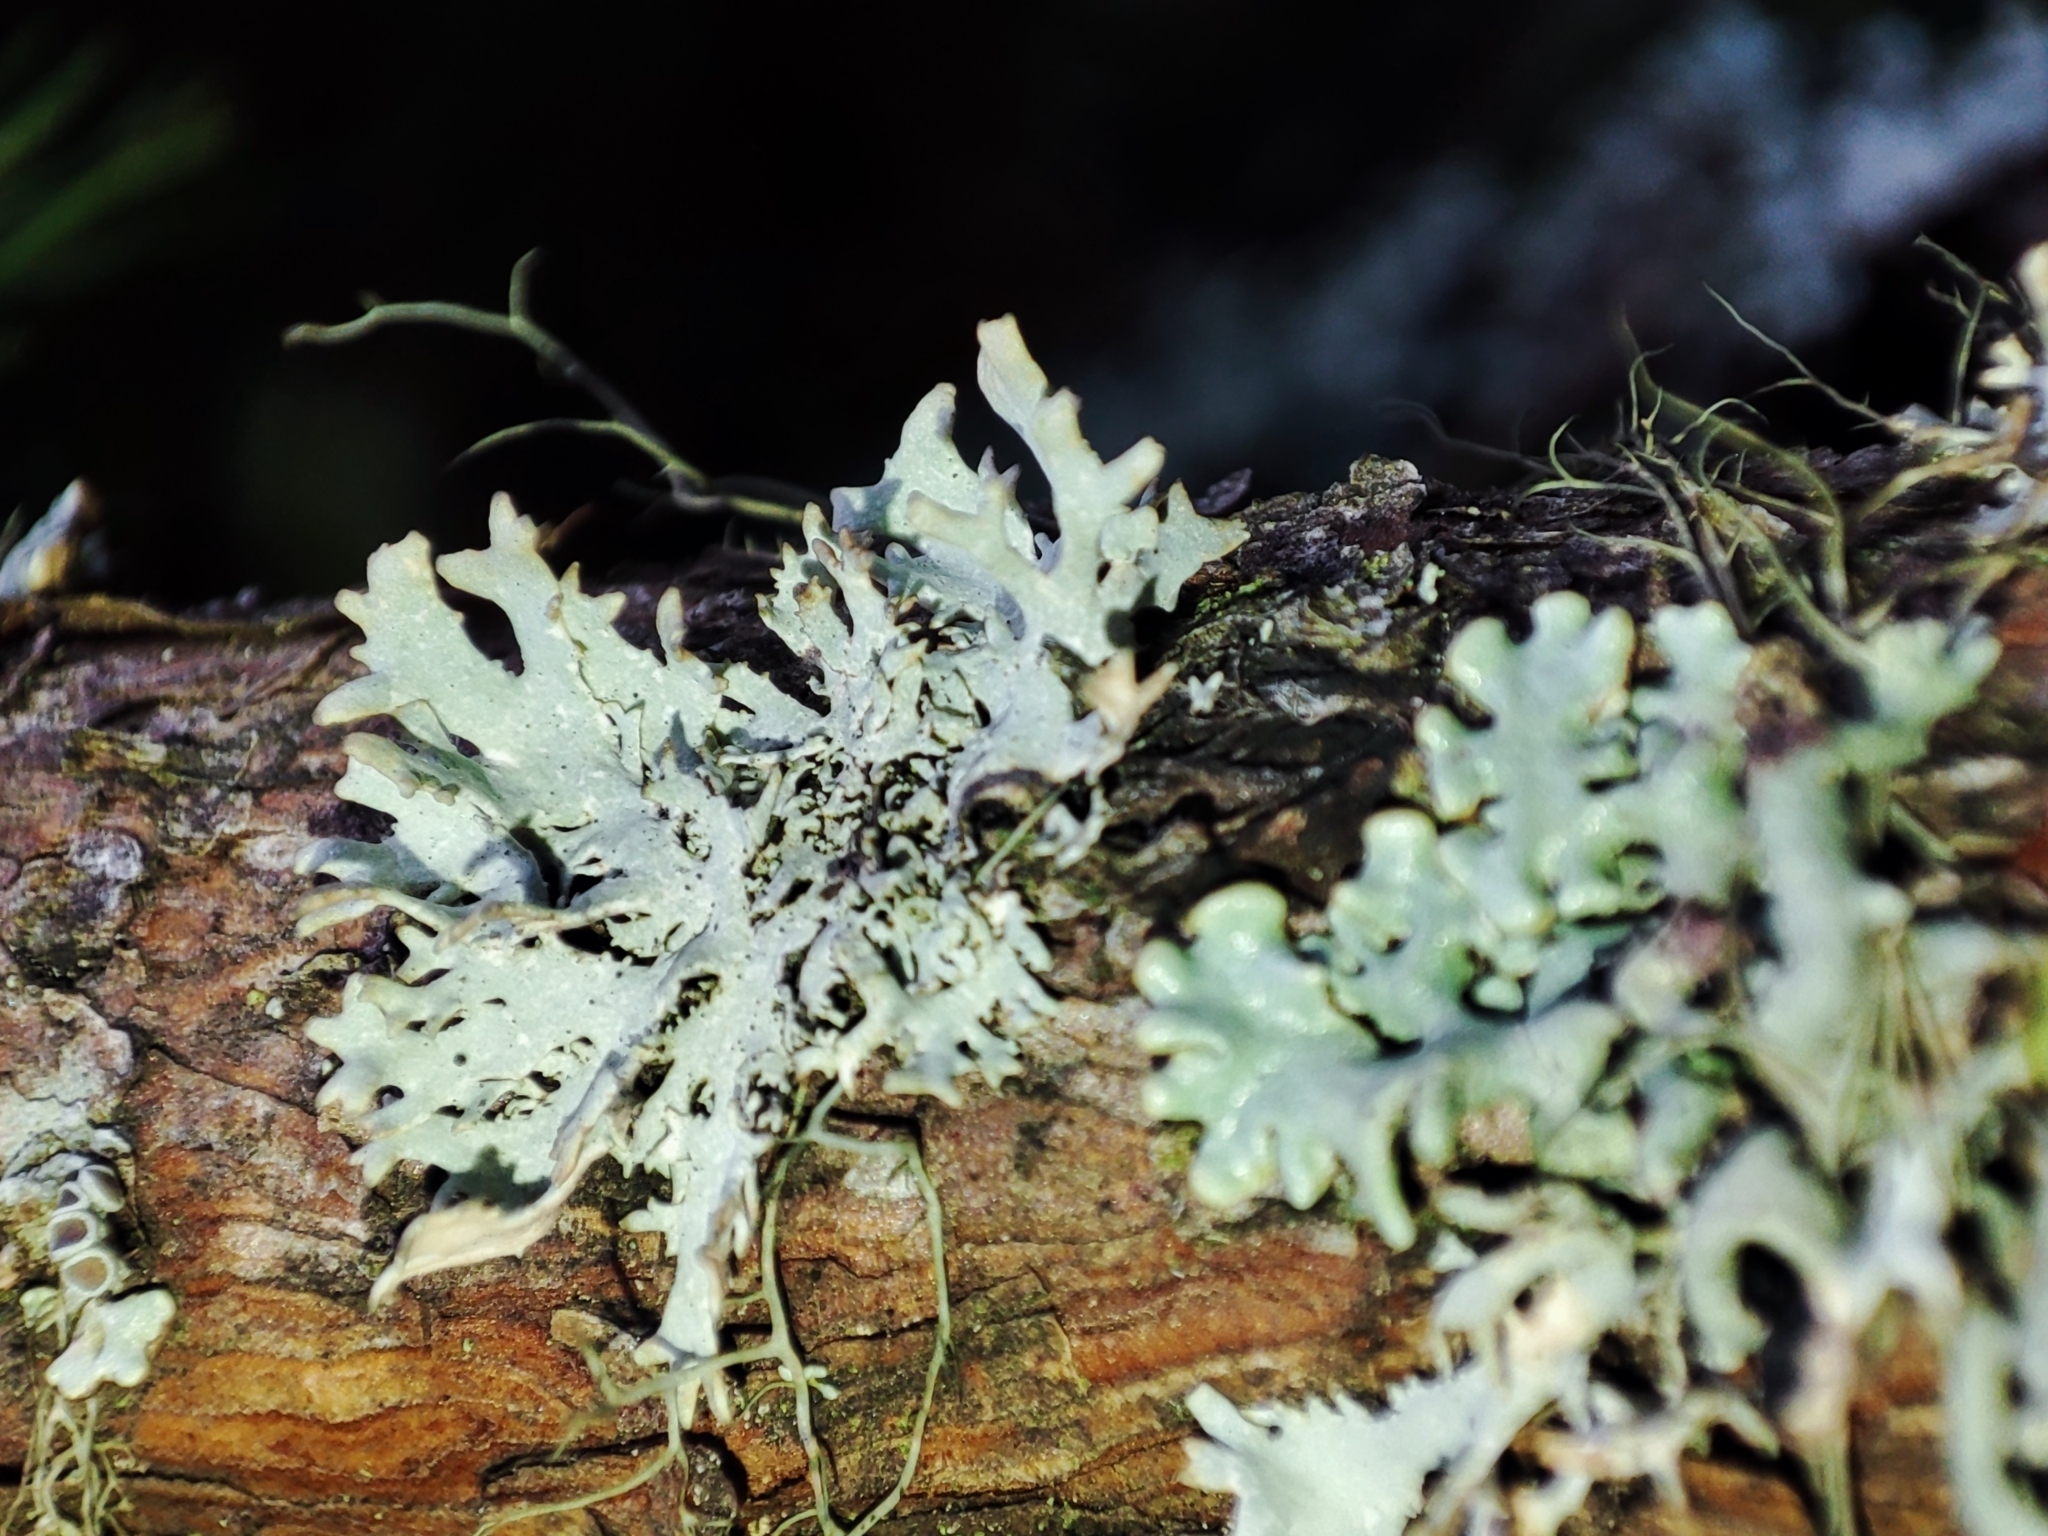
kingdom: Fungi
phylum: Ascomycota
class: Lecanoromycetes
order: Lecanorales
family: Parmeliaceae
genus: Pseudevernia
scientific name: Pseudevernia furfuracea
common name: Tree moss
